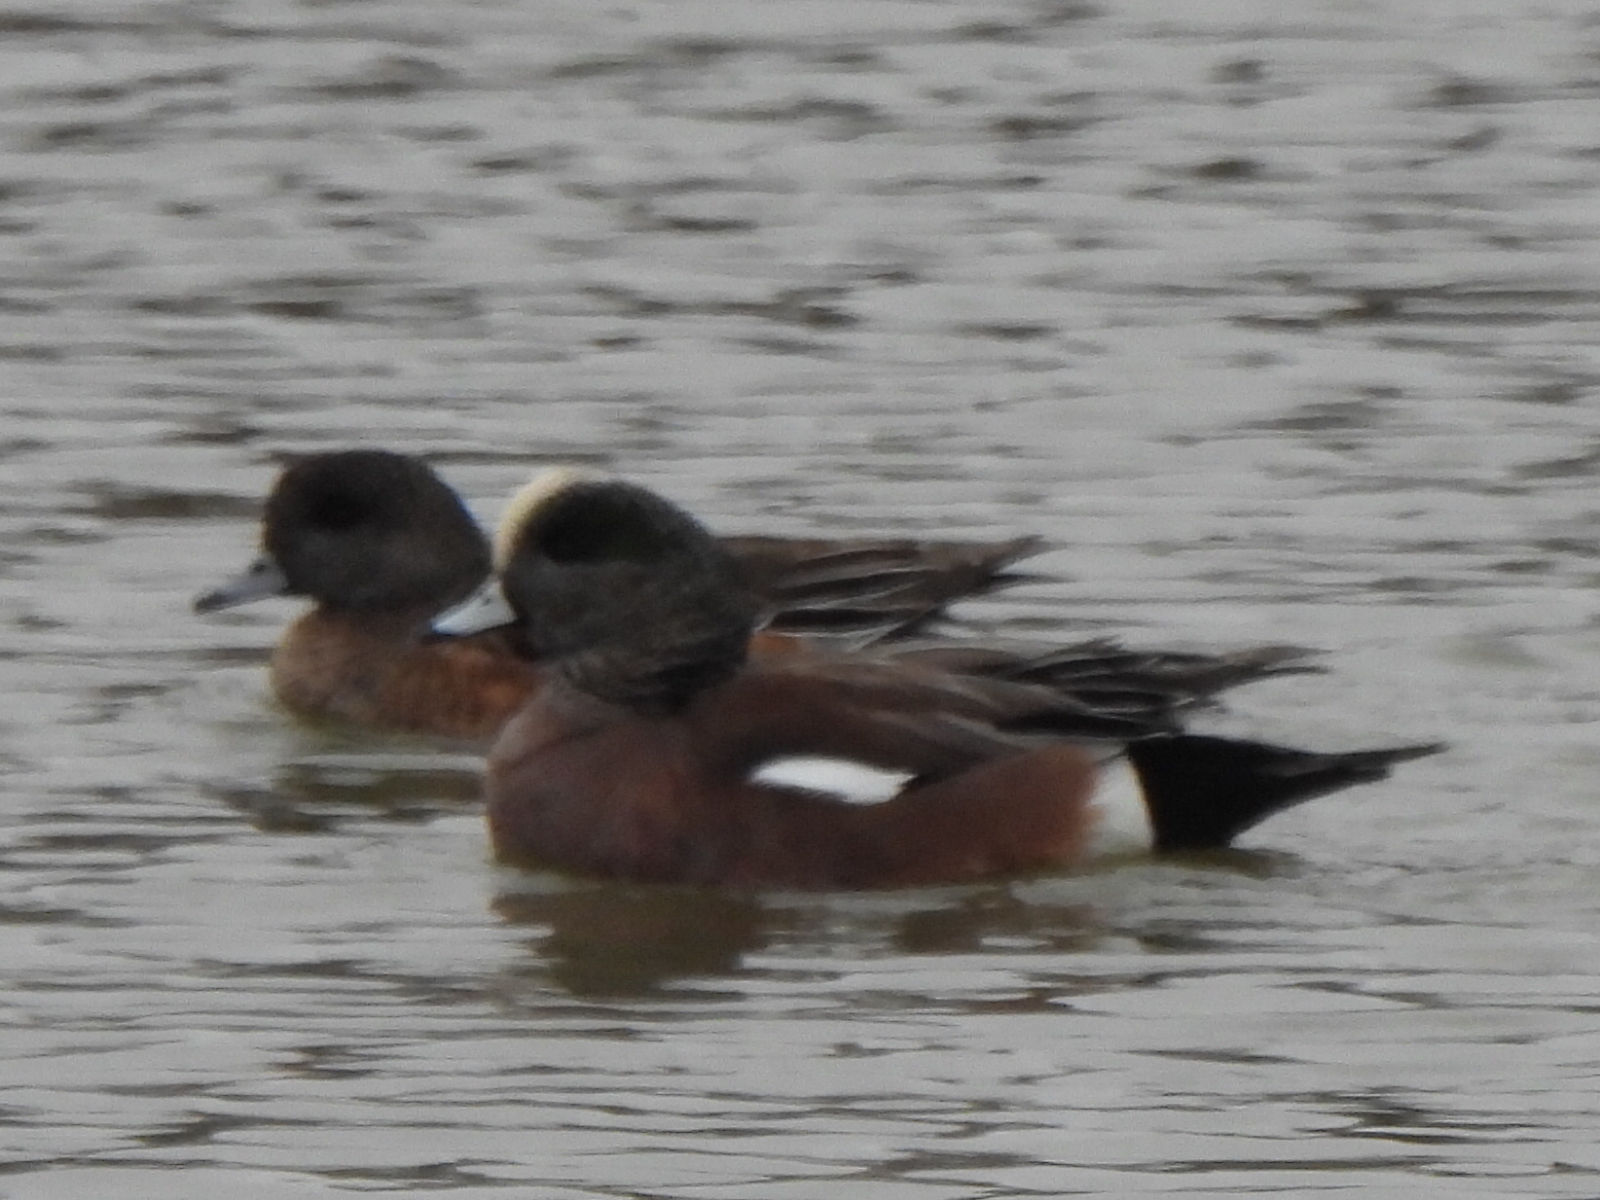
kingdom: Animalia
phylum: Chordata
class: Aves
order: Anseriformes
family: Anatidae
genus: Mareca
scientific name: Mareca americana
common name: American wigeon
